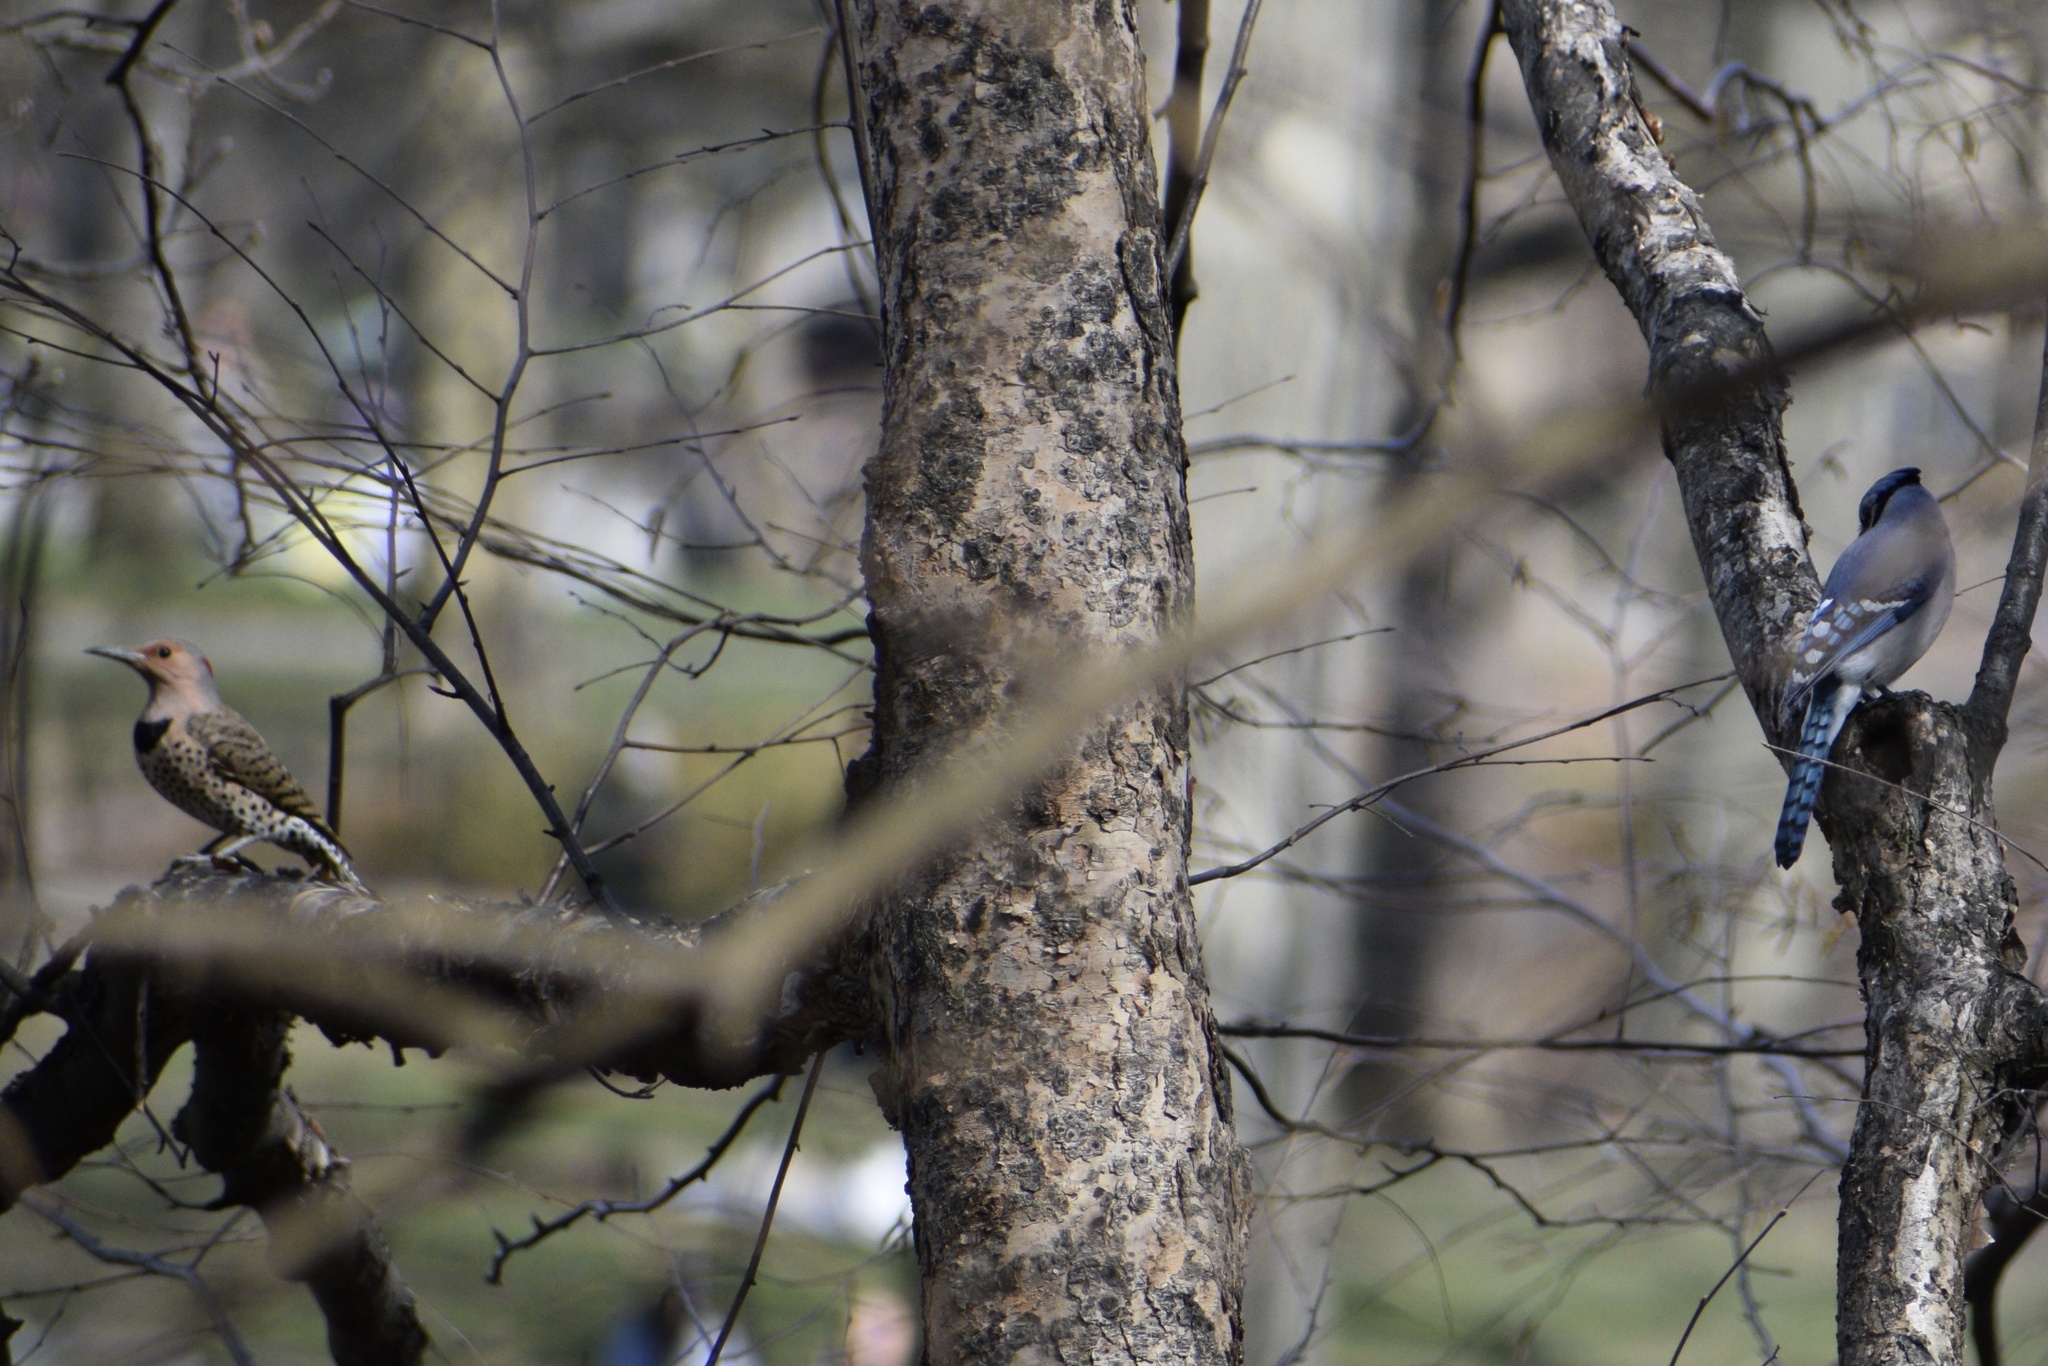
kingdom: Animalia
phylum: Chordata
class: Aves
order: Passeriformes
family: Corvidae
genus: Cyanocitta
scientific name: Cyanocitta cristata
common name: Blue jay
